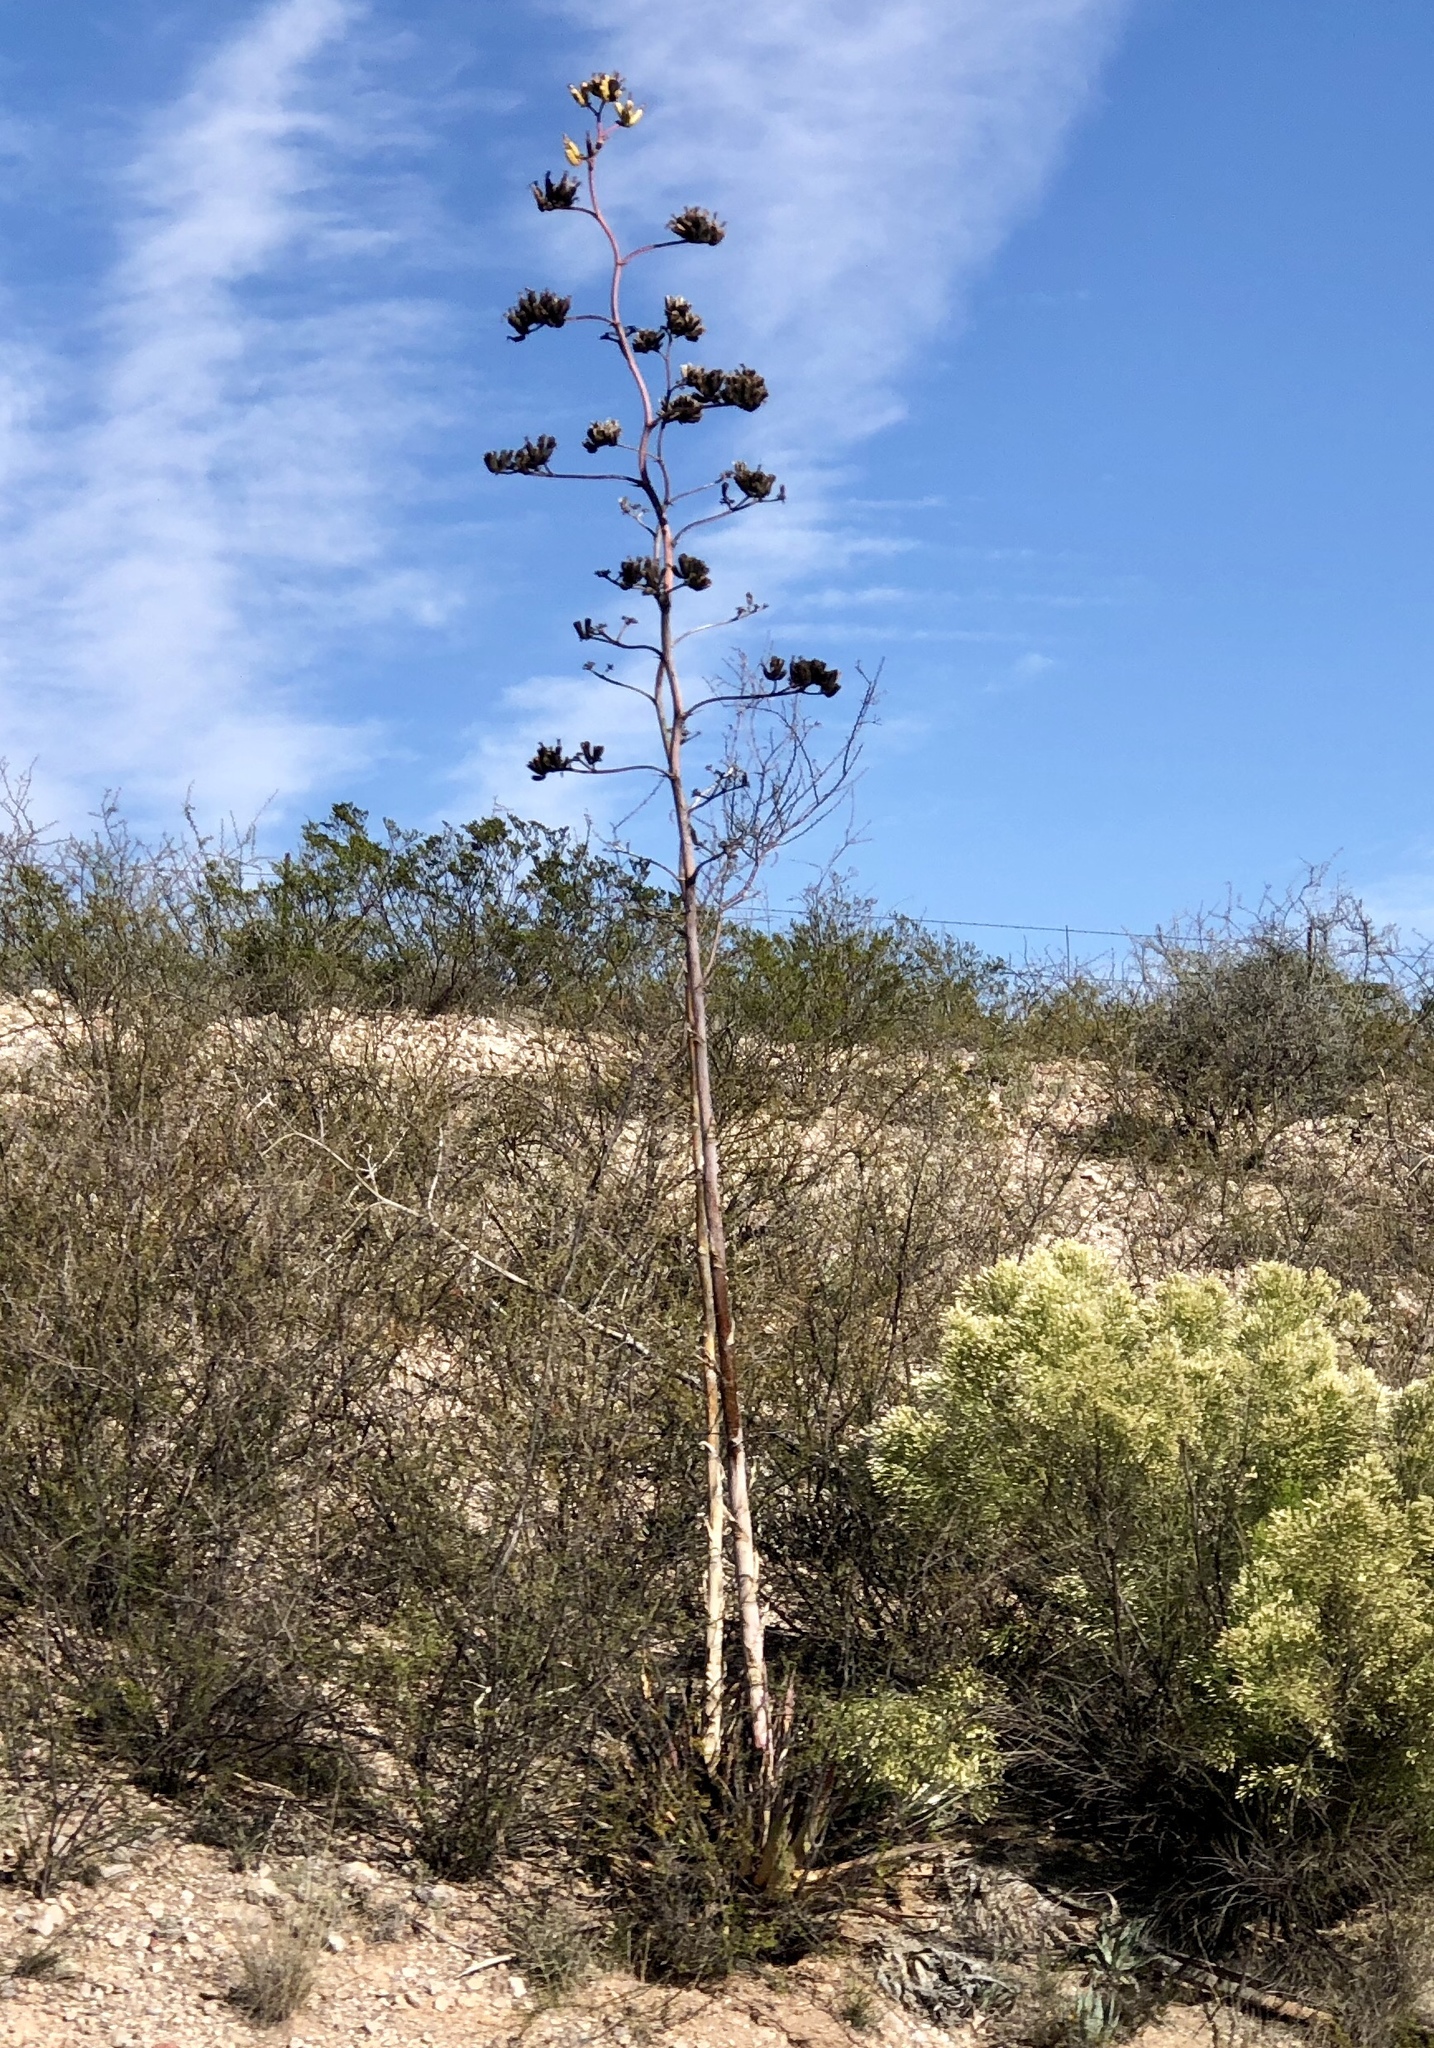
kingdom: Plantae
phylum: Tracheophyta
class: Liliopsida
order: Asparagales
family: Asparagaceae
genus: Agave
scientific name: Agave palmeri
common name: Palmer agave
